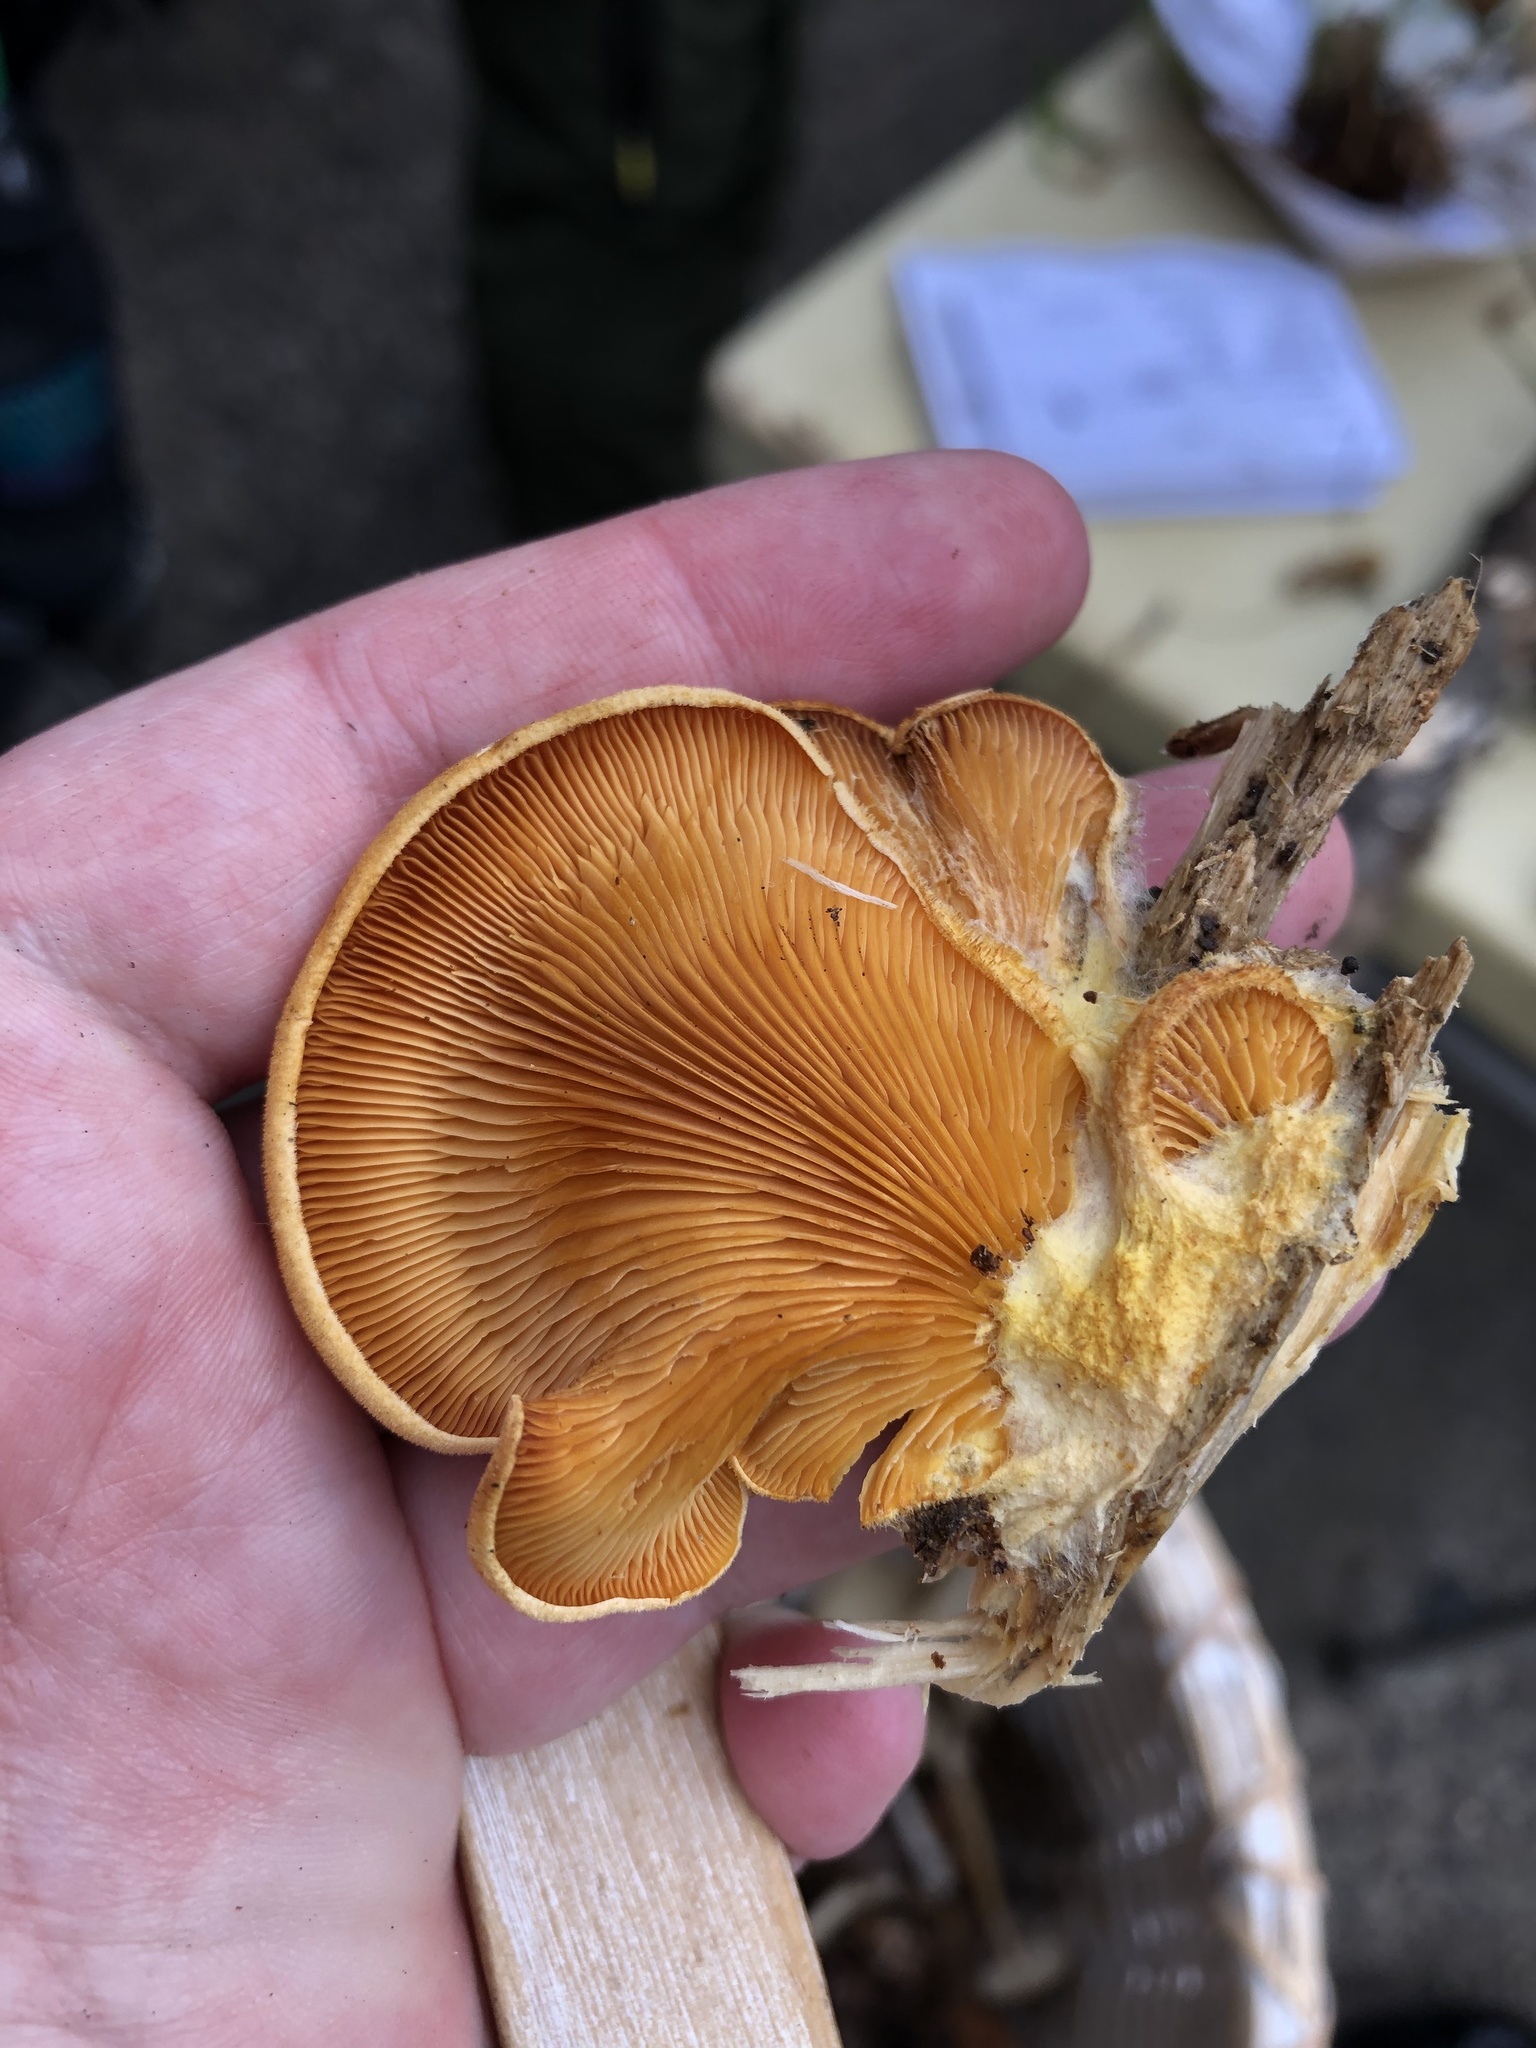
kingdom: Fungi
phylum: Basidiomycota
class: Agaricomycetes
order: Agaricales
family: Phyllotopsidaceae
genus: Phyllotopsis
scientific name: Phyllotopsis nidulans
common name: Orange mock oyster
